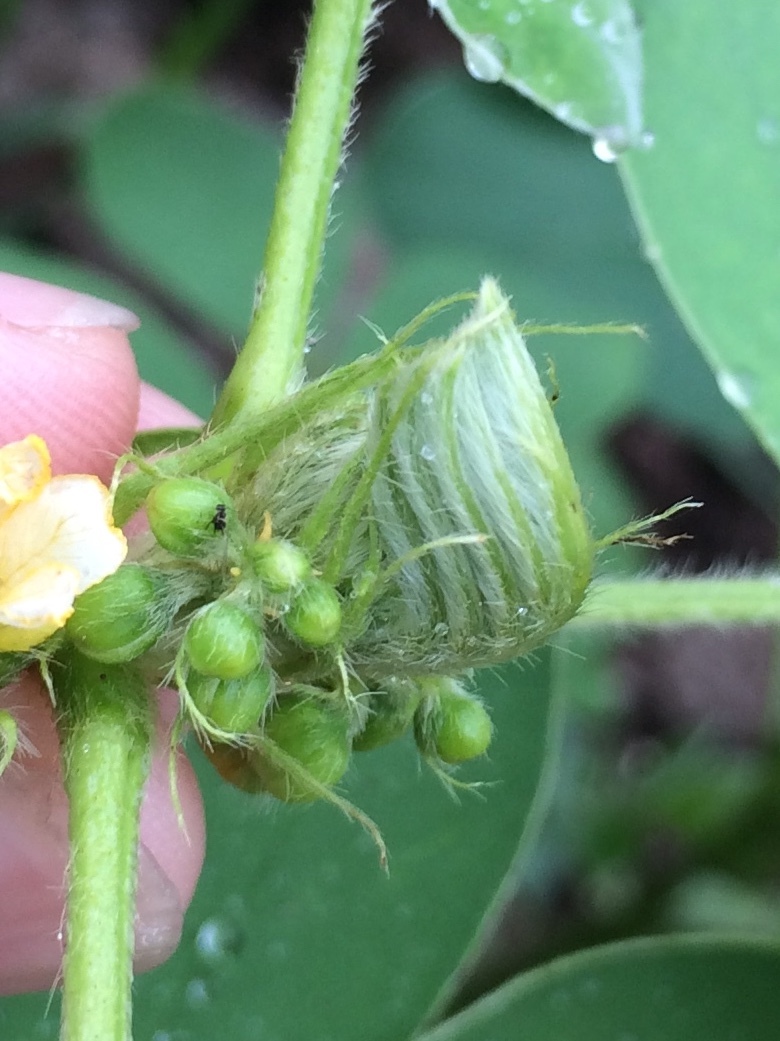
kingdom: Plantae
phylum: Tracheophyta
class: Magnoliopsida
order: Fabales
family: Fabaceae
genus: Senna
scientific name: Senna uniflora
